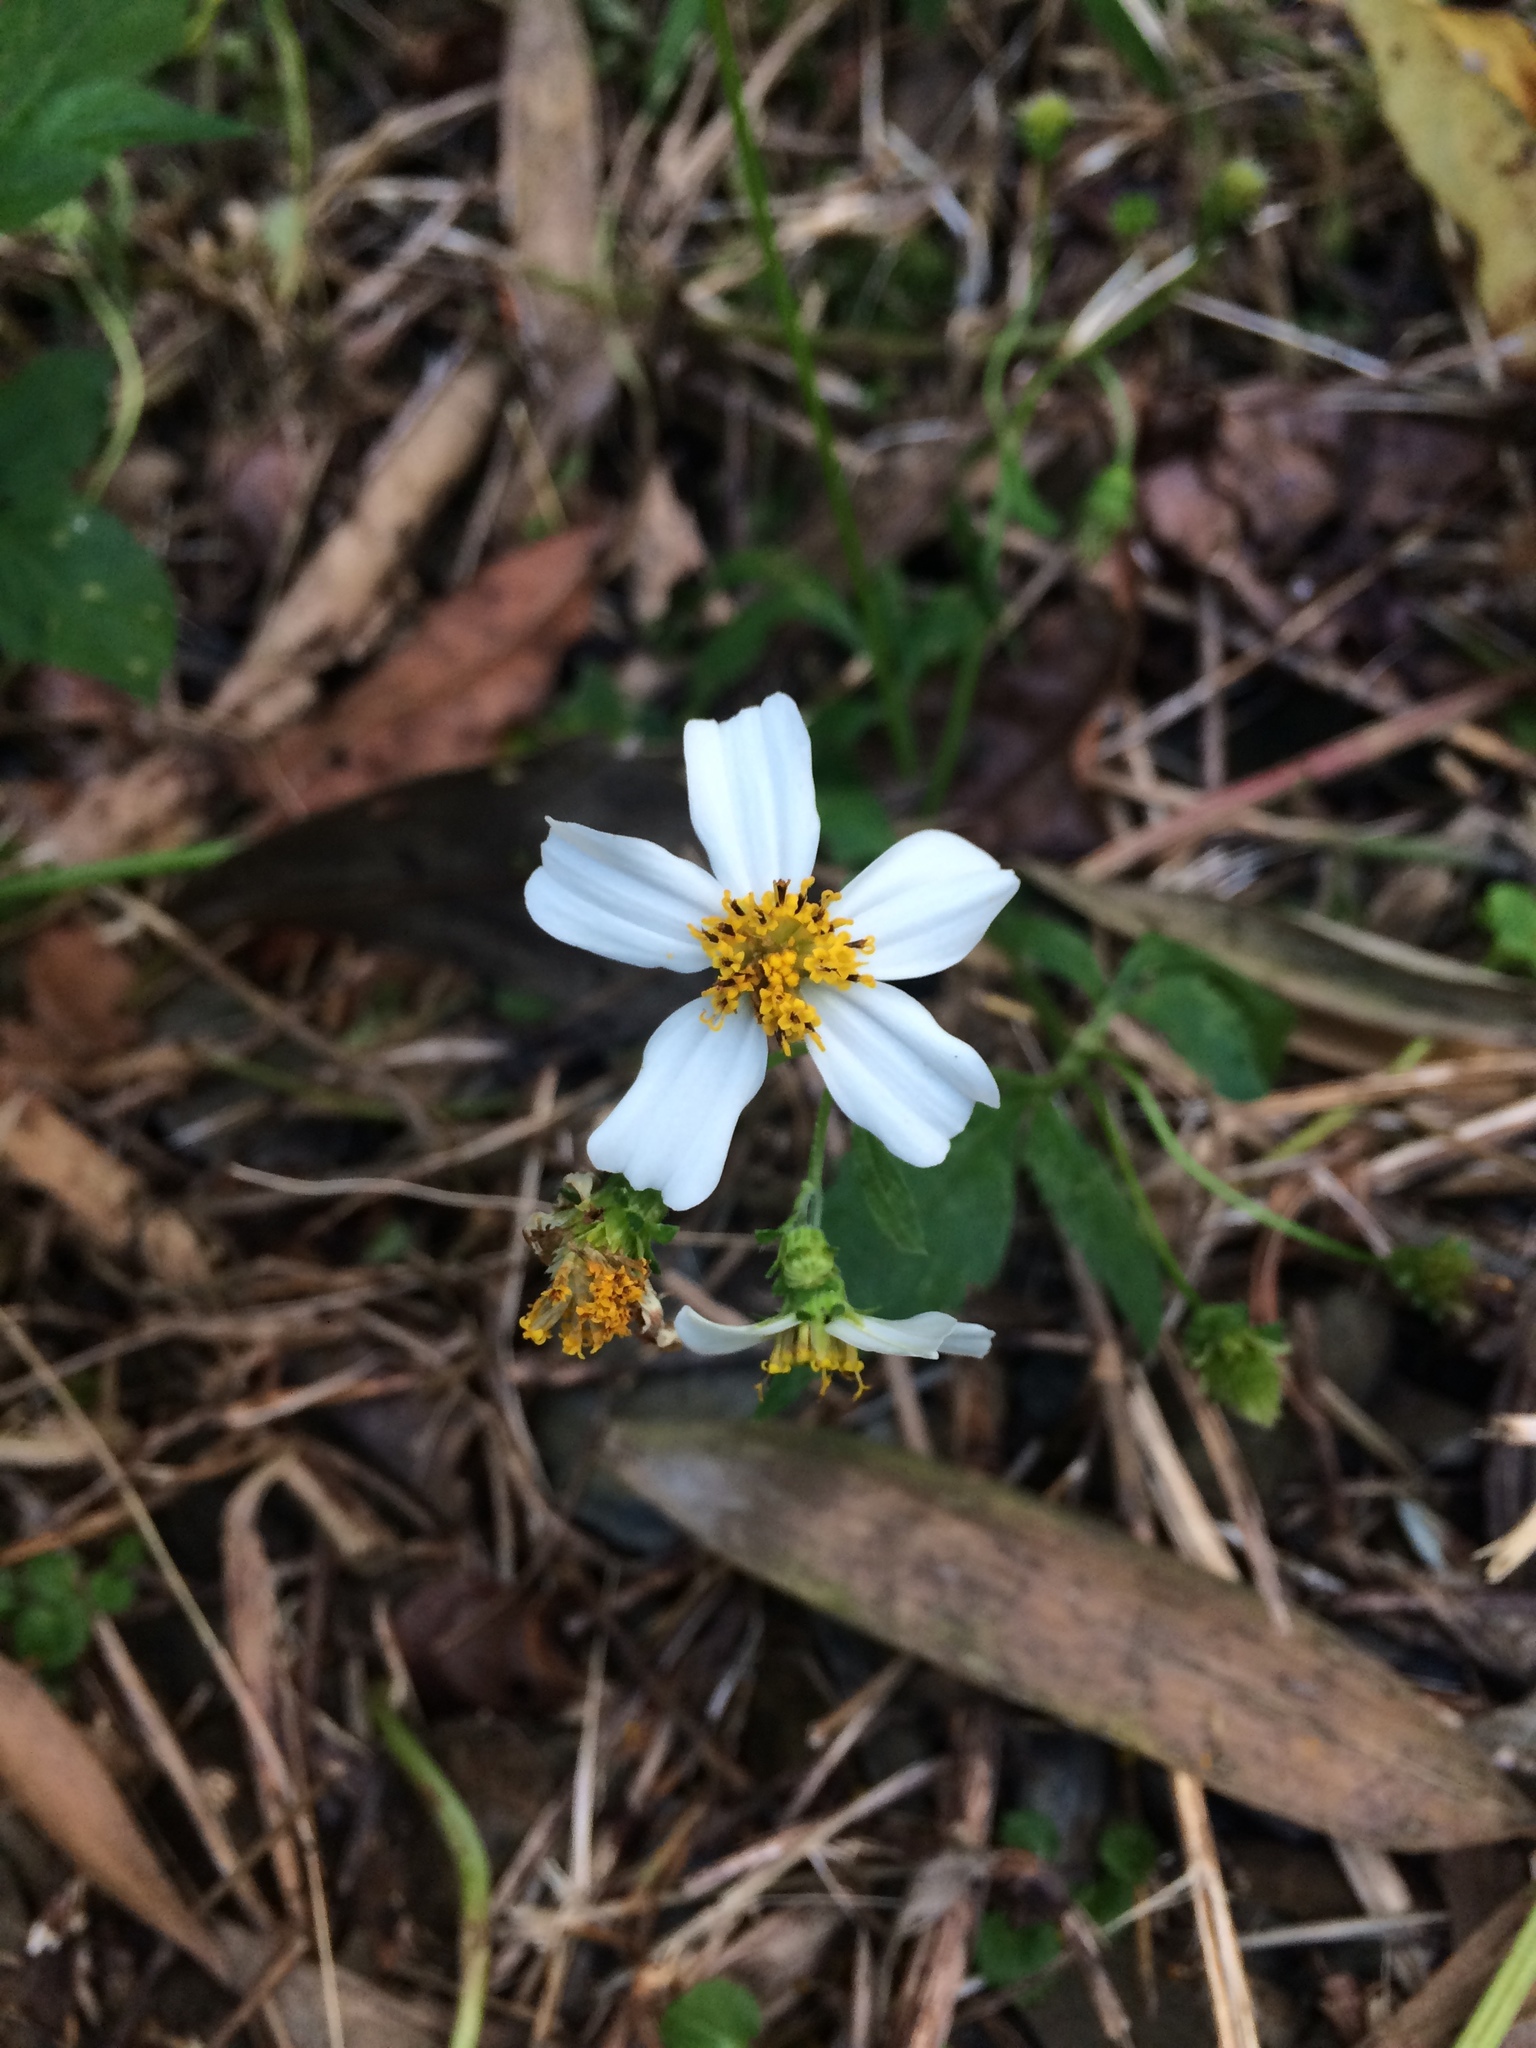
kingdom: Plantae
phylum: Tracheophyta
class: Magnoliopsida
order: Asterales
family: Asteraceae
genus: Bidens
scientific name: Bidens alba
